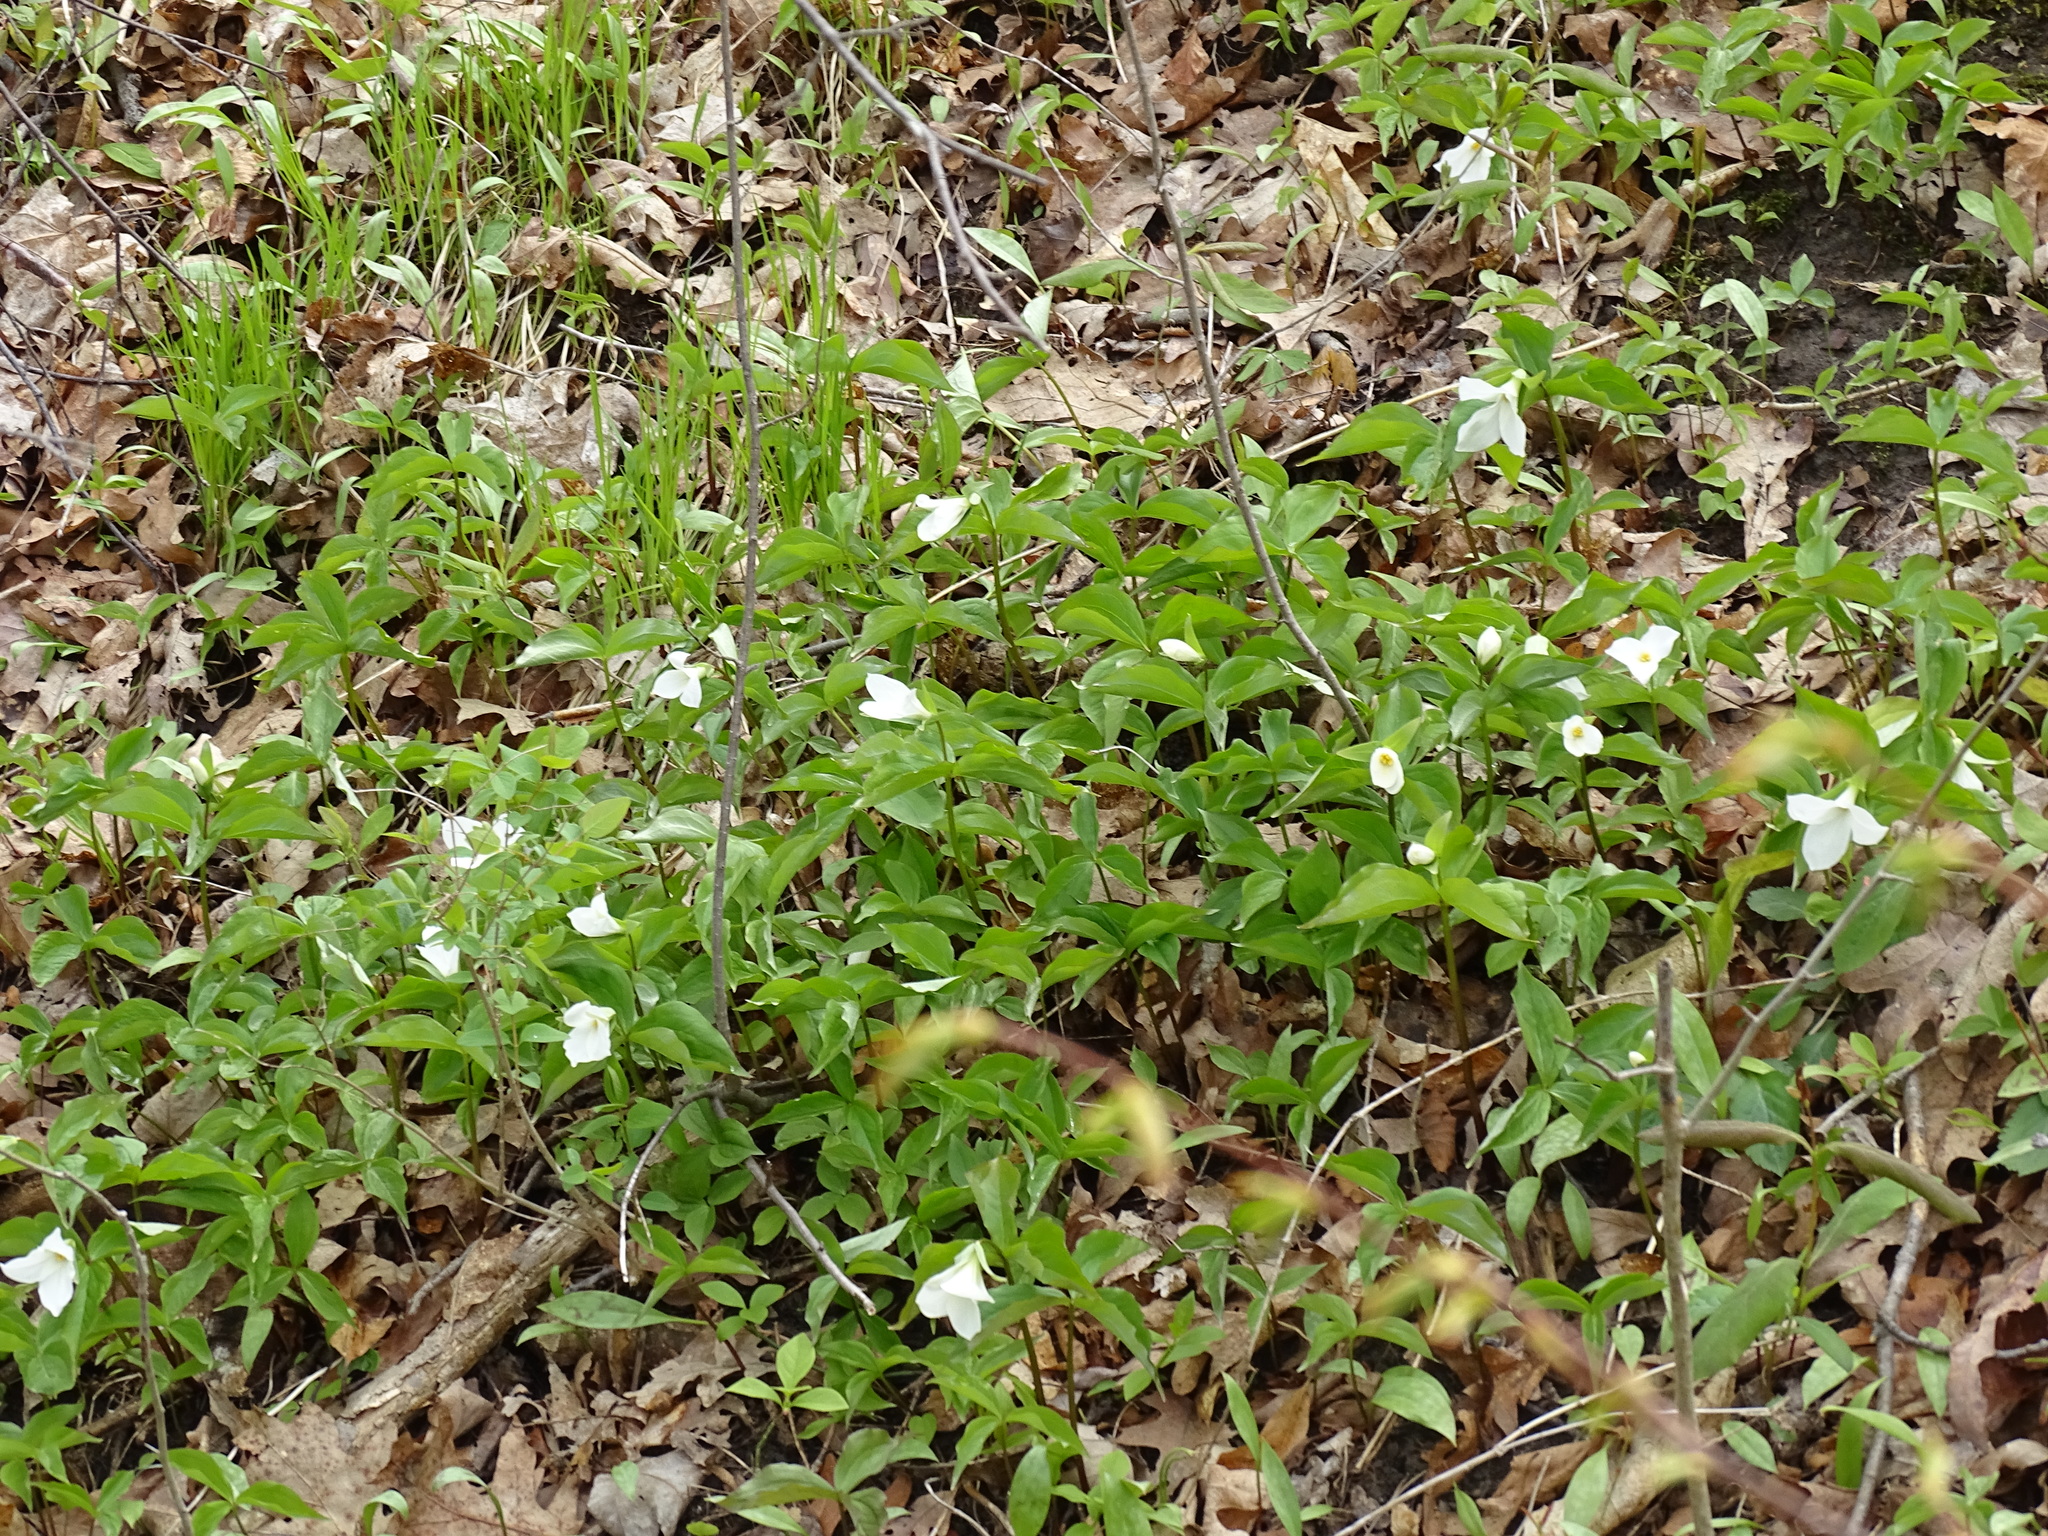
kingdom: Plantae
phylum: Tracheophyta
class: Liliopsida
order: Liliales
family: Melanthiaceae
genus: Trillium
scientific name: Trillium grandiflorum
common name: Great white trillium
